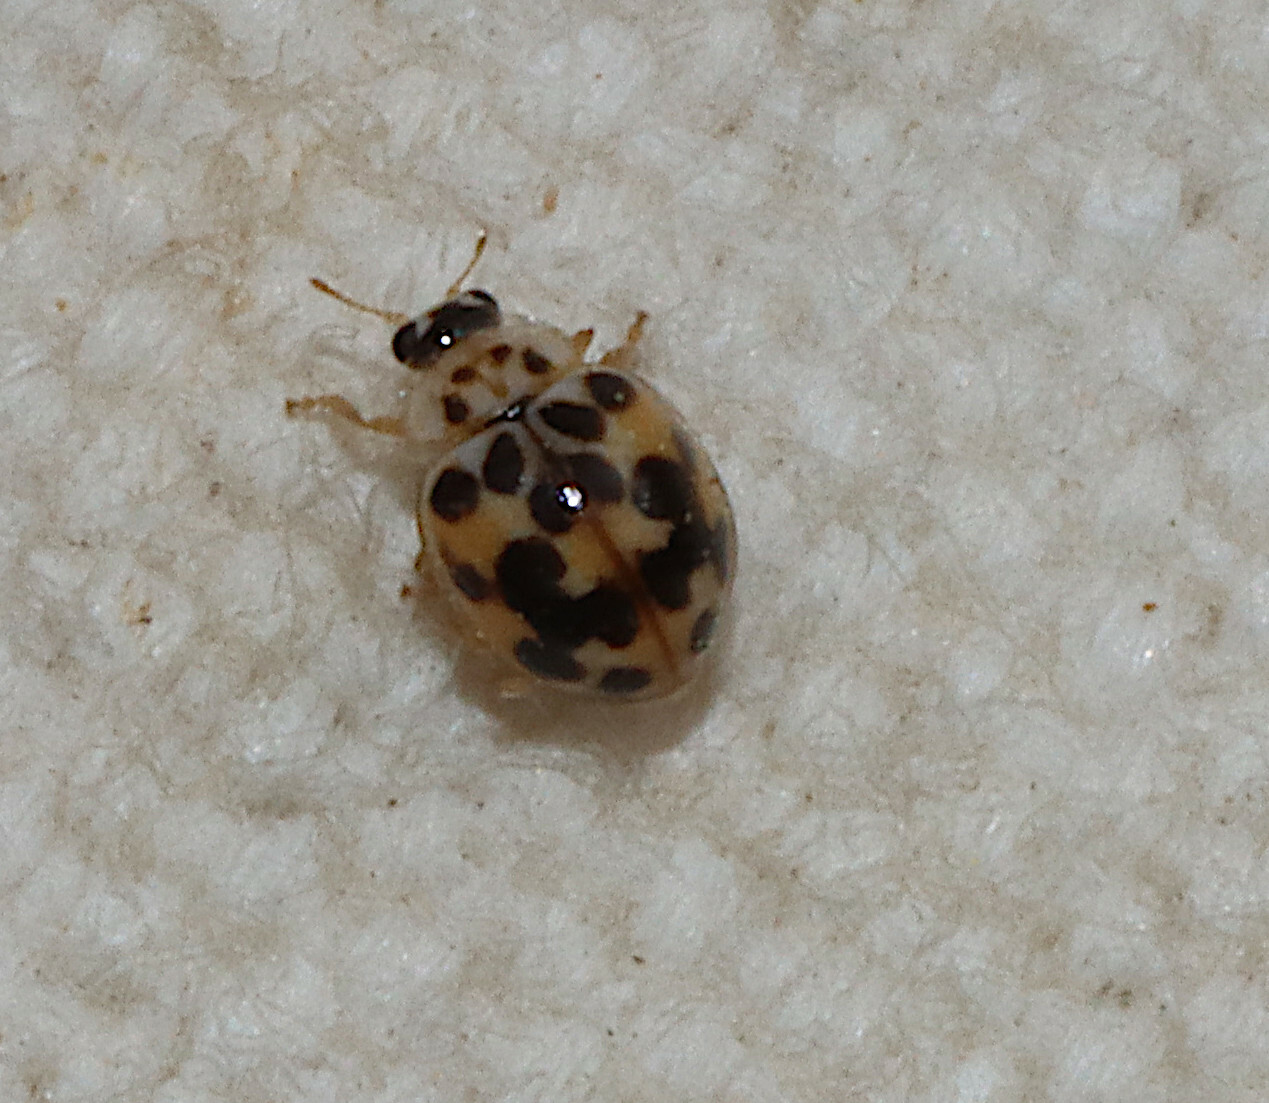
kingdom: Animalia
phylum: Arthropoda
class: Insecta
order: Coleoptera
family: Coccinellidae
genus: Psyllobora
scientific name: Psyllobora vigintimaculata
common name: Ladybird beetle
